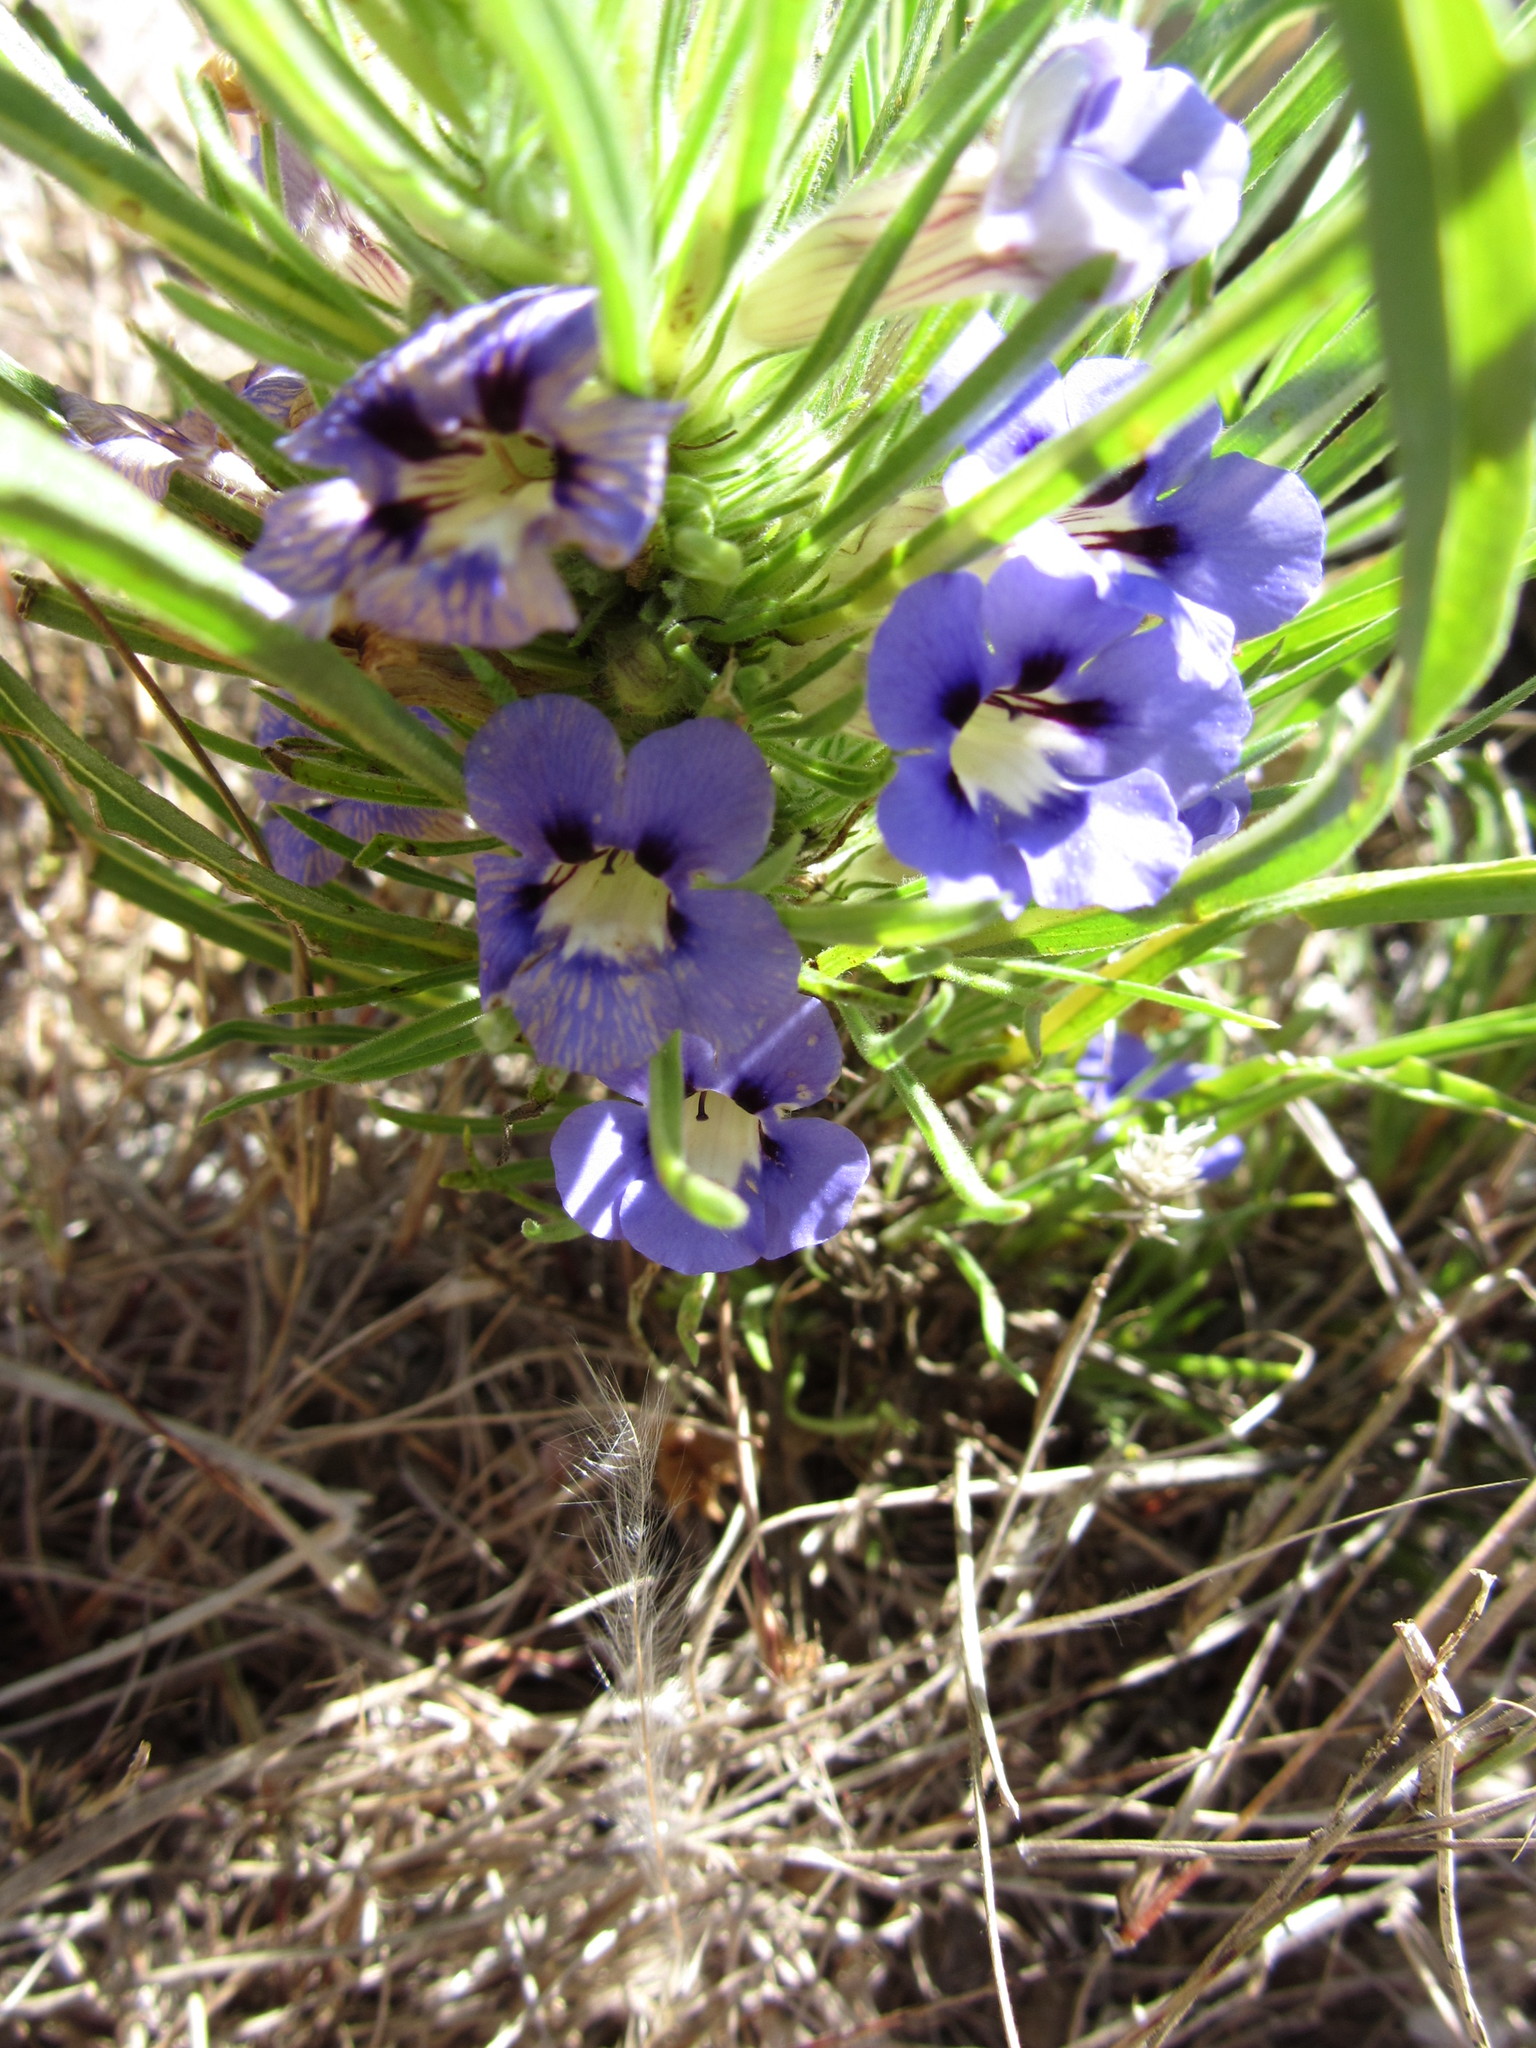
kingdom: Plantae
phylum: Tracheophyta
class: Magnoliopsida
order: Lamiales
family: Scrophulariaceae
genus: Aptosimum
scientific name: Aptosimum spinescens
